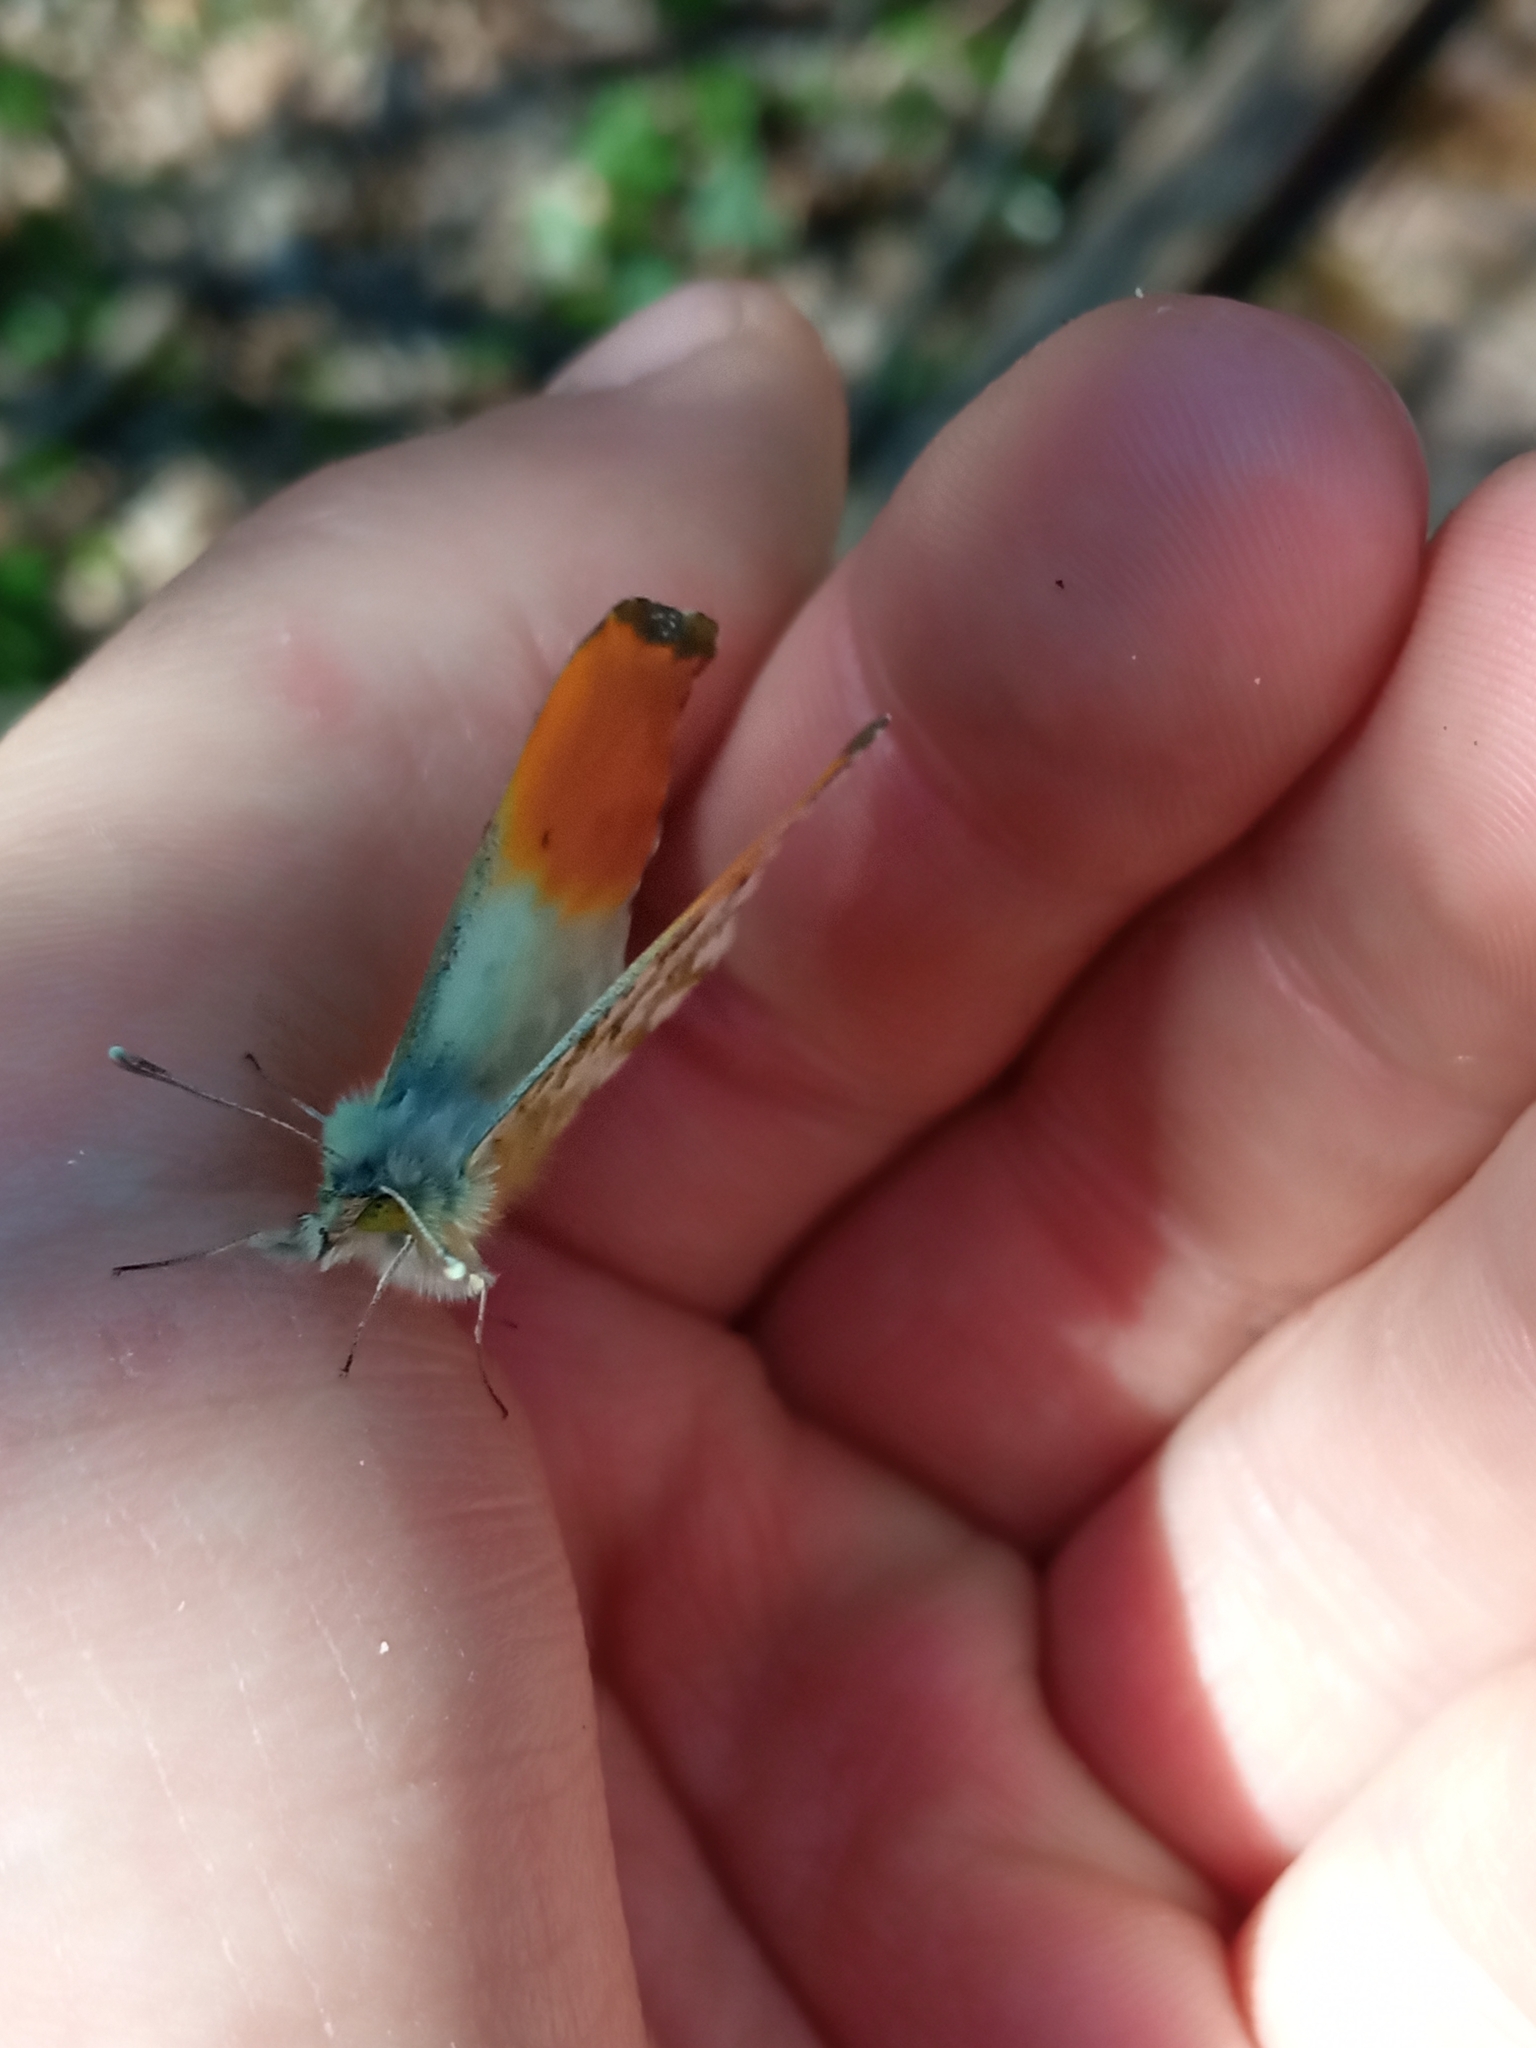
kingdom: Animalia
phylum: Arthropoda
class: Insecta
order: Lepidoptera
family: Pieridae
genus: Anthocharis
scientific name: Anthocharis cardamines
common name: Orange-tip
